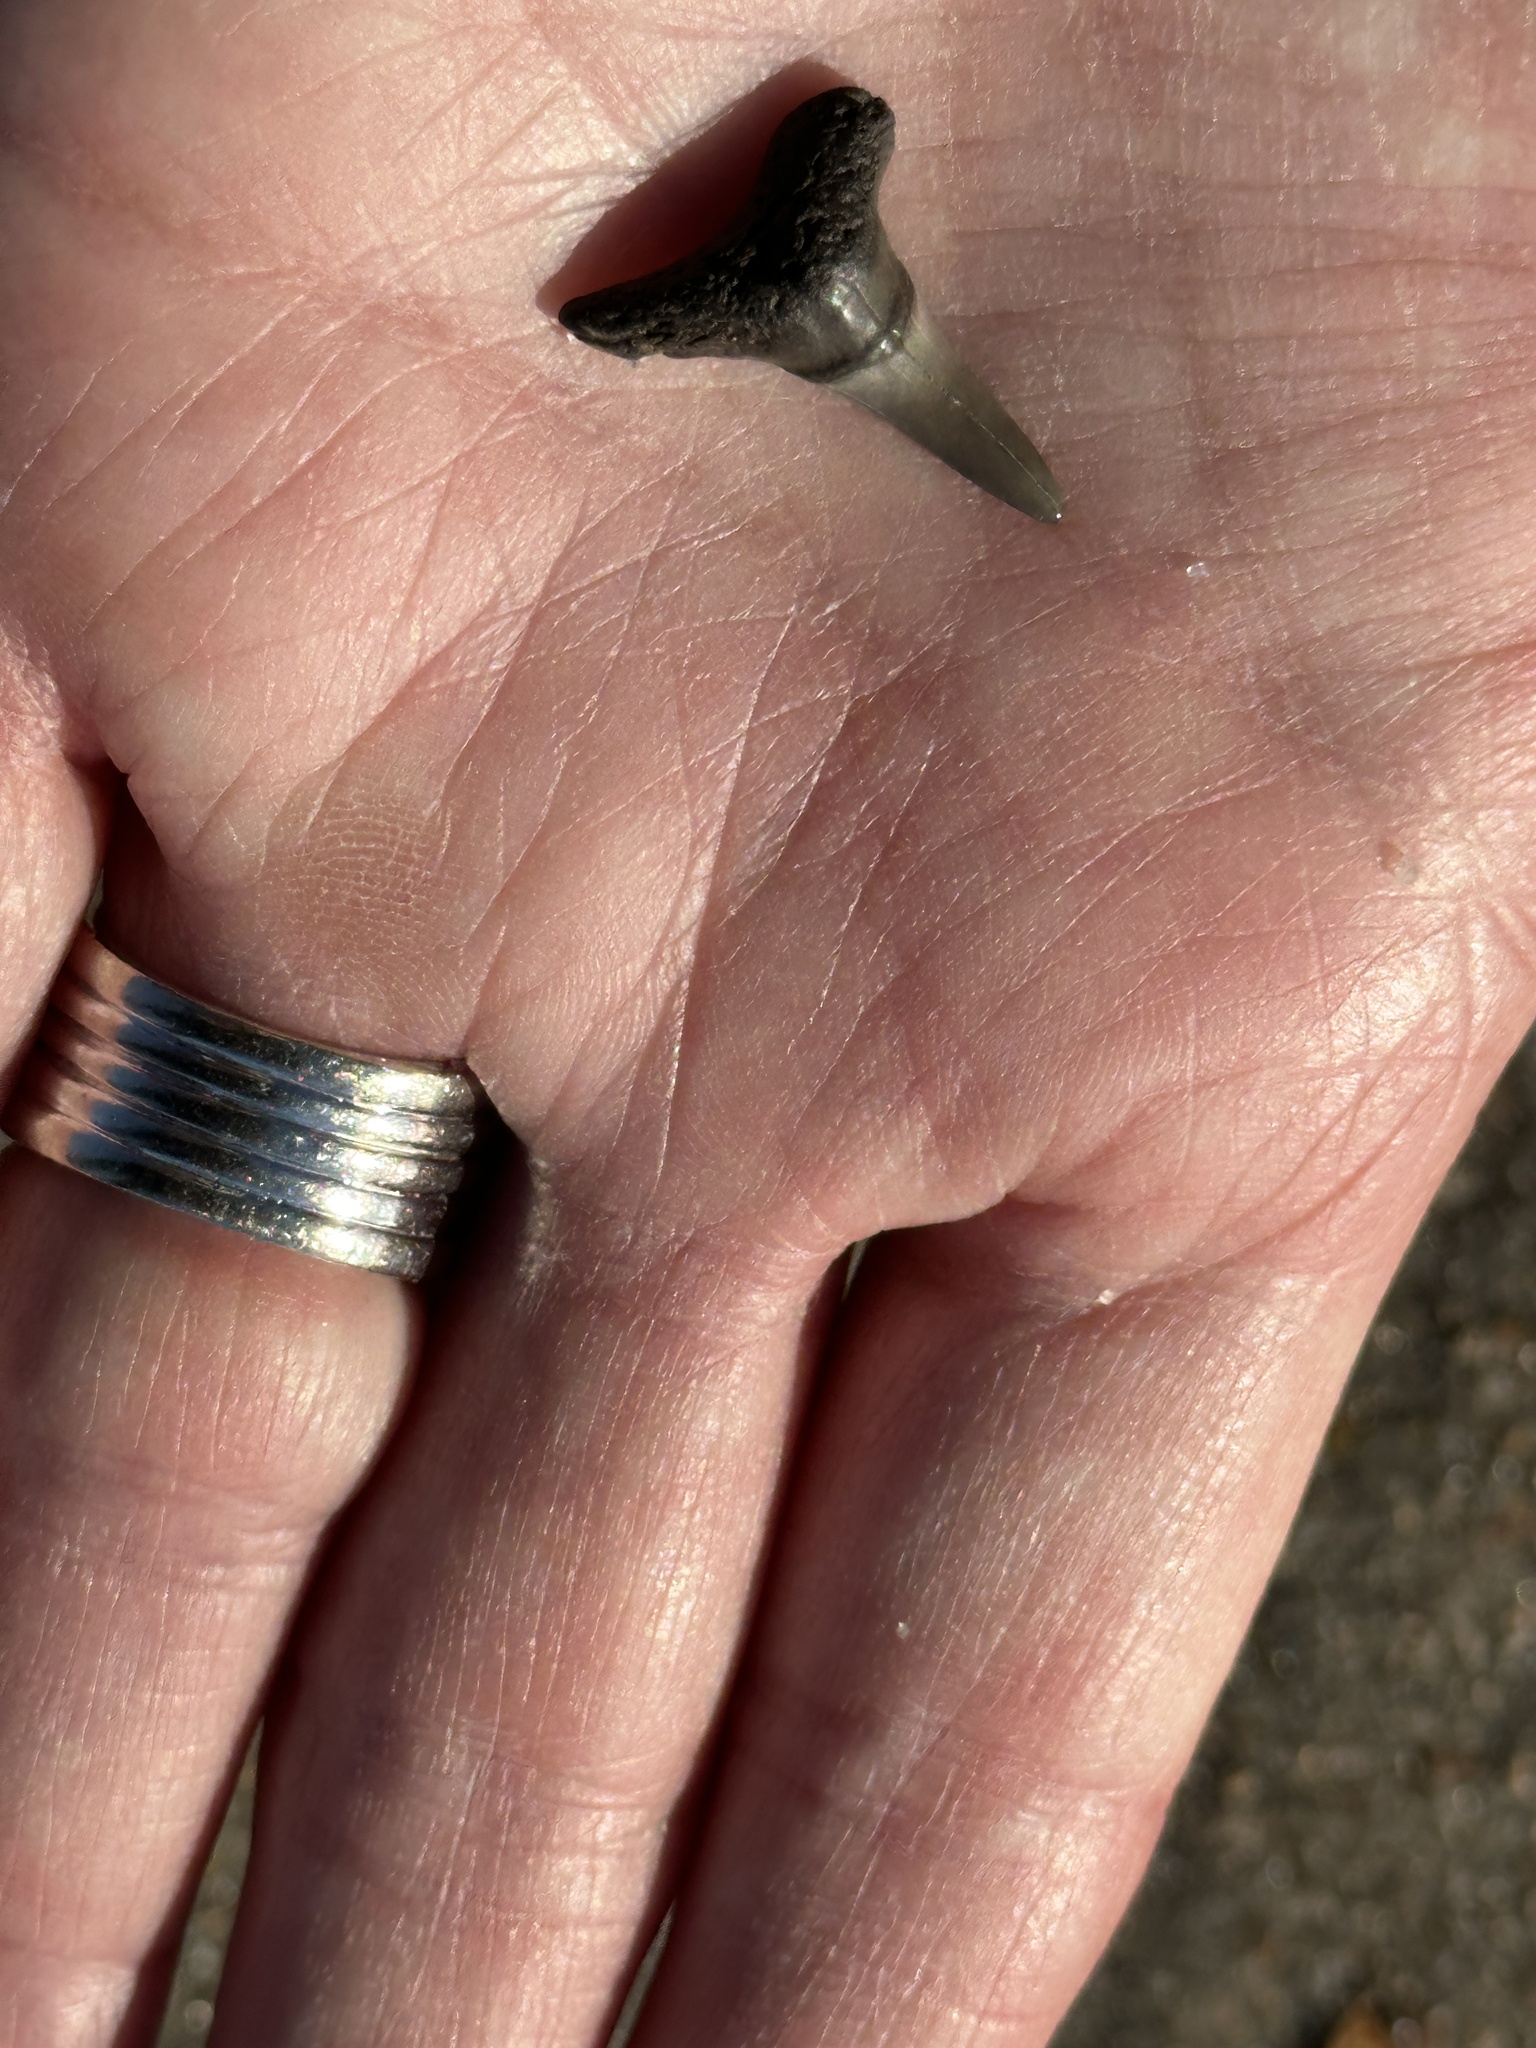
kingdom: Animalia
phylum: Chordata
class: Elasmobranchii
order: Carcharhiniformes
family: Carcharhinidae
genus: Negaprion
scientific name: Negaprion brevirostris
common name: Lemon shark
